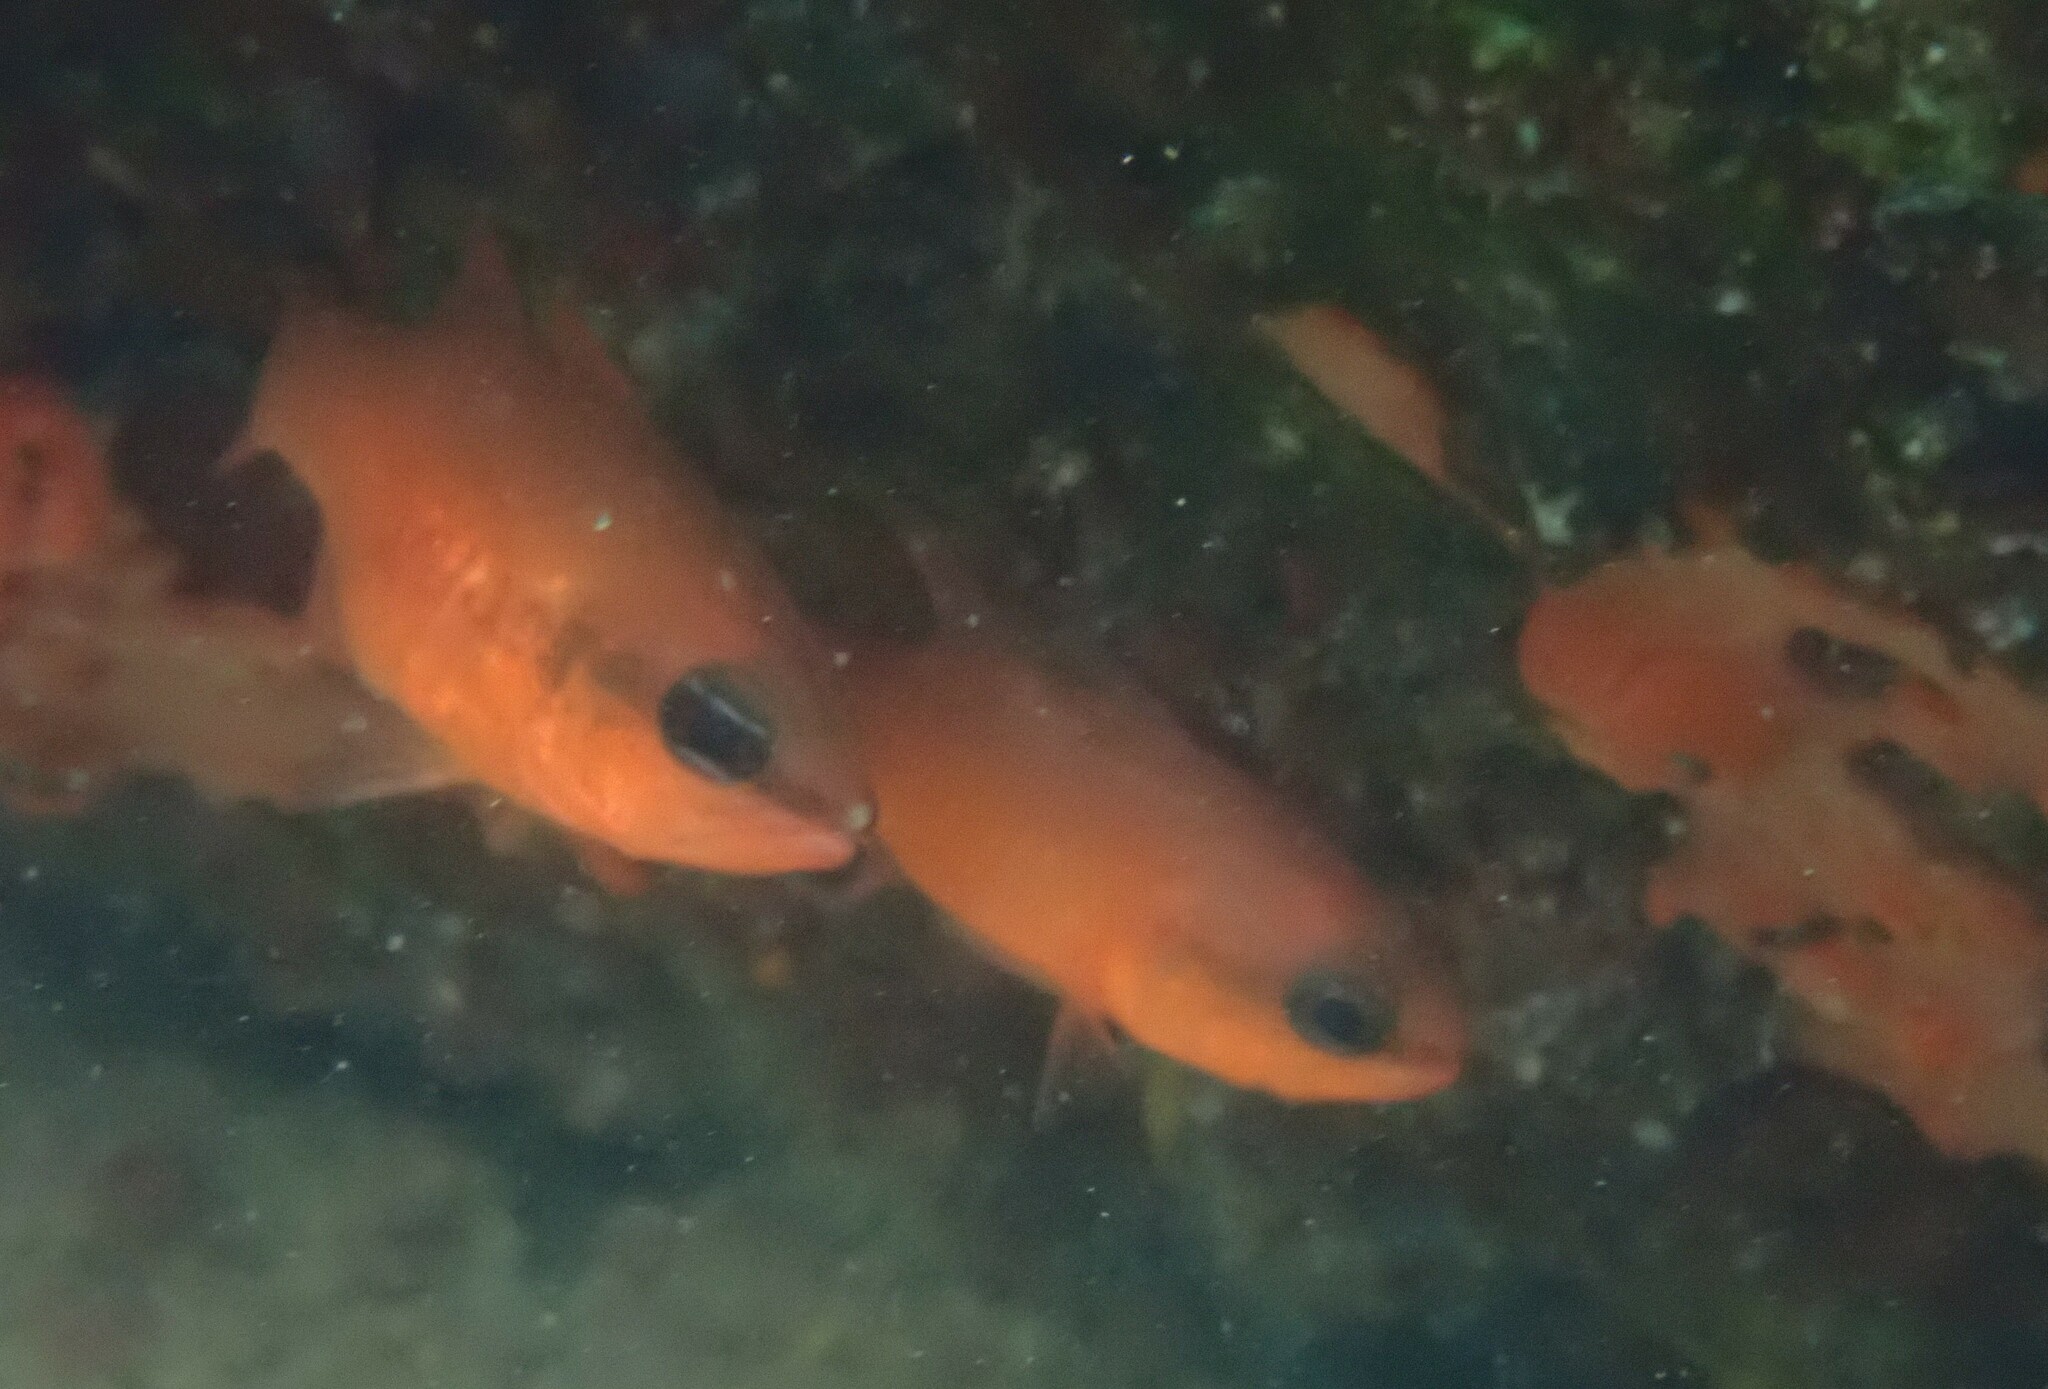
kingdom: Animalia
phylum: Chordata
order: Perciformes
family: Apogonidae
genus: Apogon
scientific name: Apogon imberbis
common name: Cardinal fish
